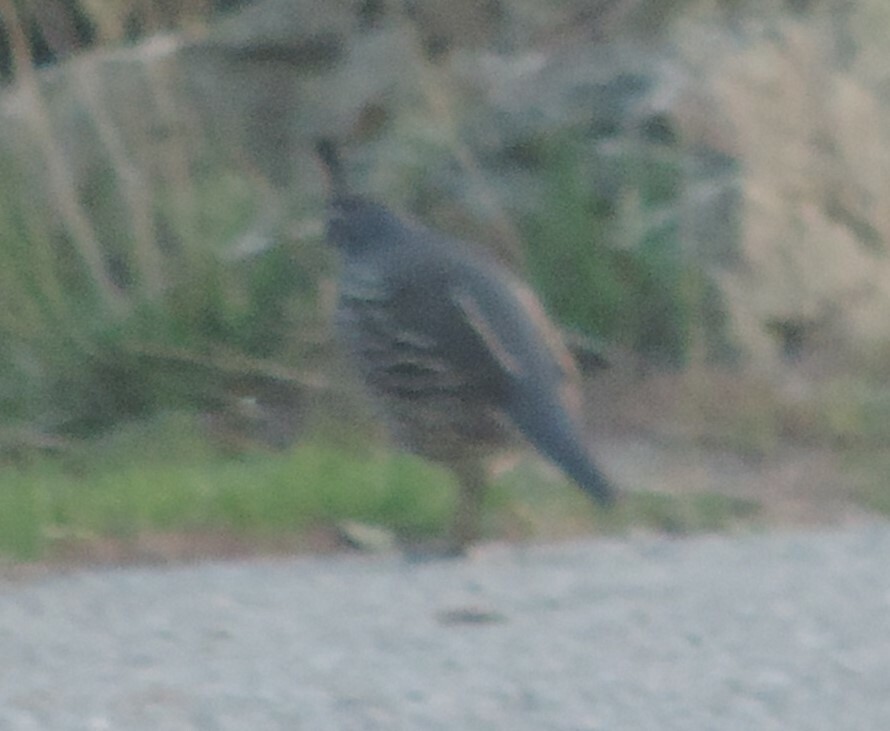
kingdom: Animalia
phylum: Chordata
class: Aves
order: Galliformes
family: Odontophoridae
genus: Callipepla
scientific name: Callipepla californica
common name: California quail
